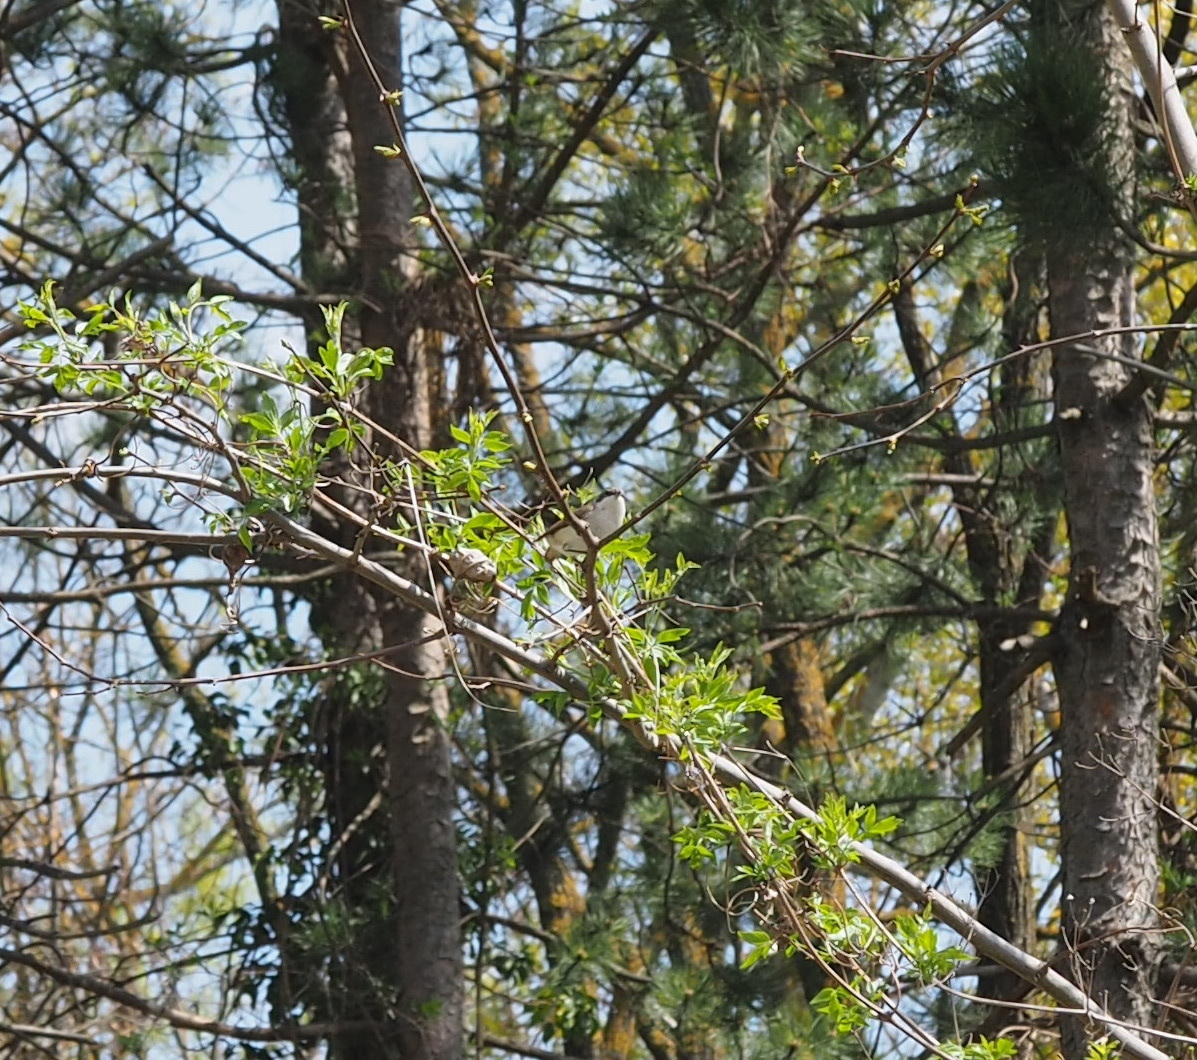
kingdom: Animalia
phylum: Chordata
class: Aves
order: Passeriformes
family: Sylviidae
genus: Sylvia
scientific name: Sylvia curruca
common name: Lesser whitethroat
